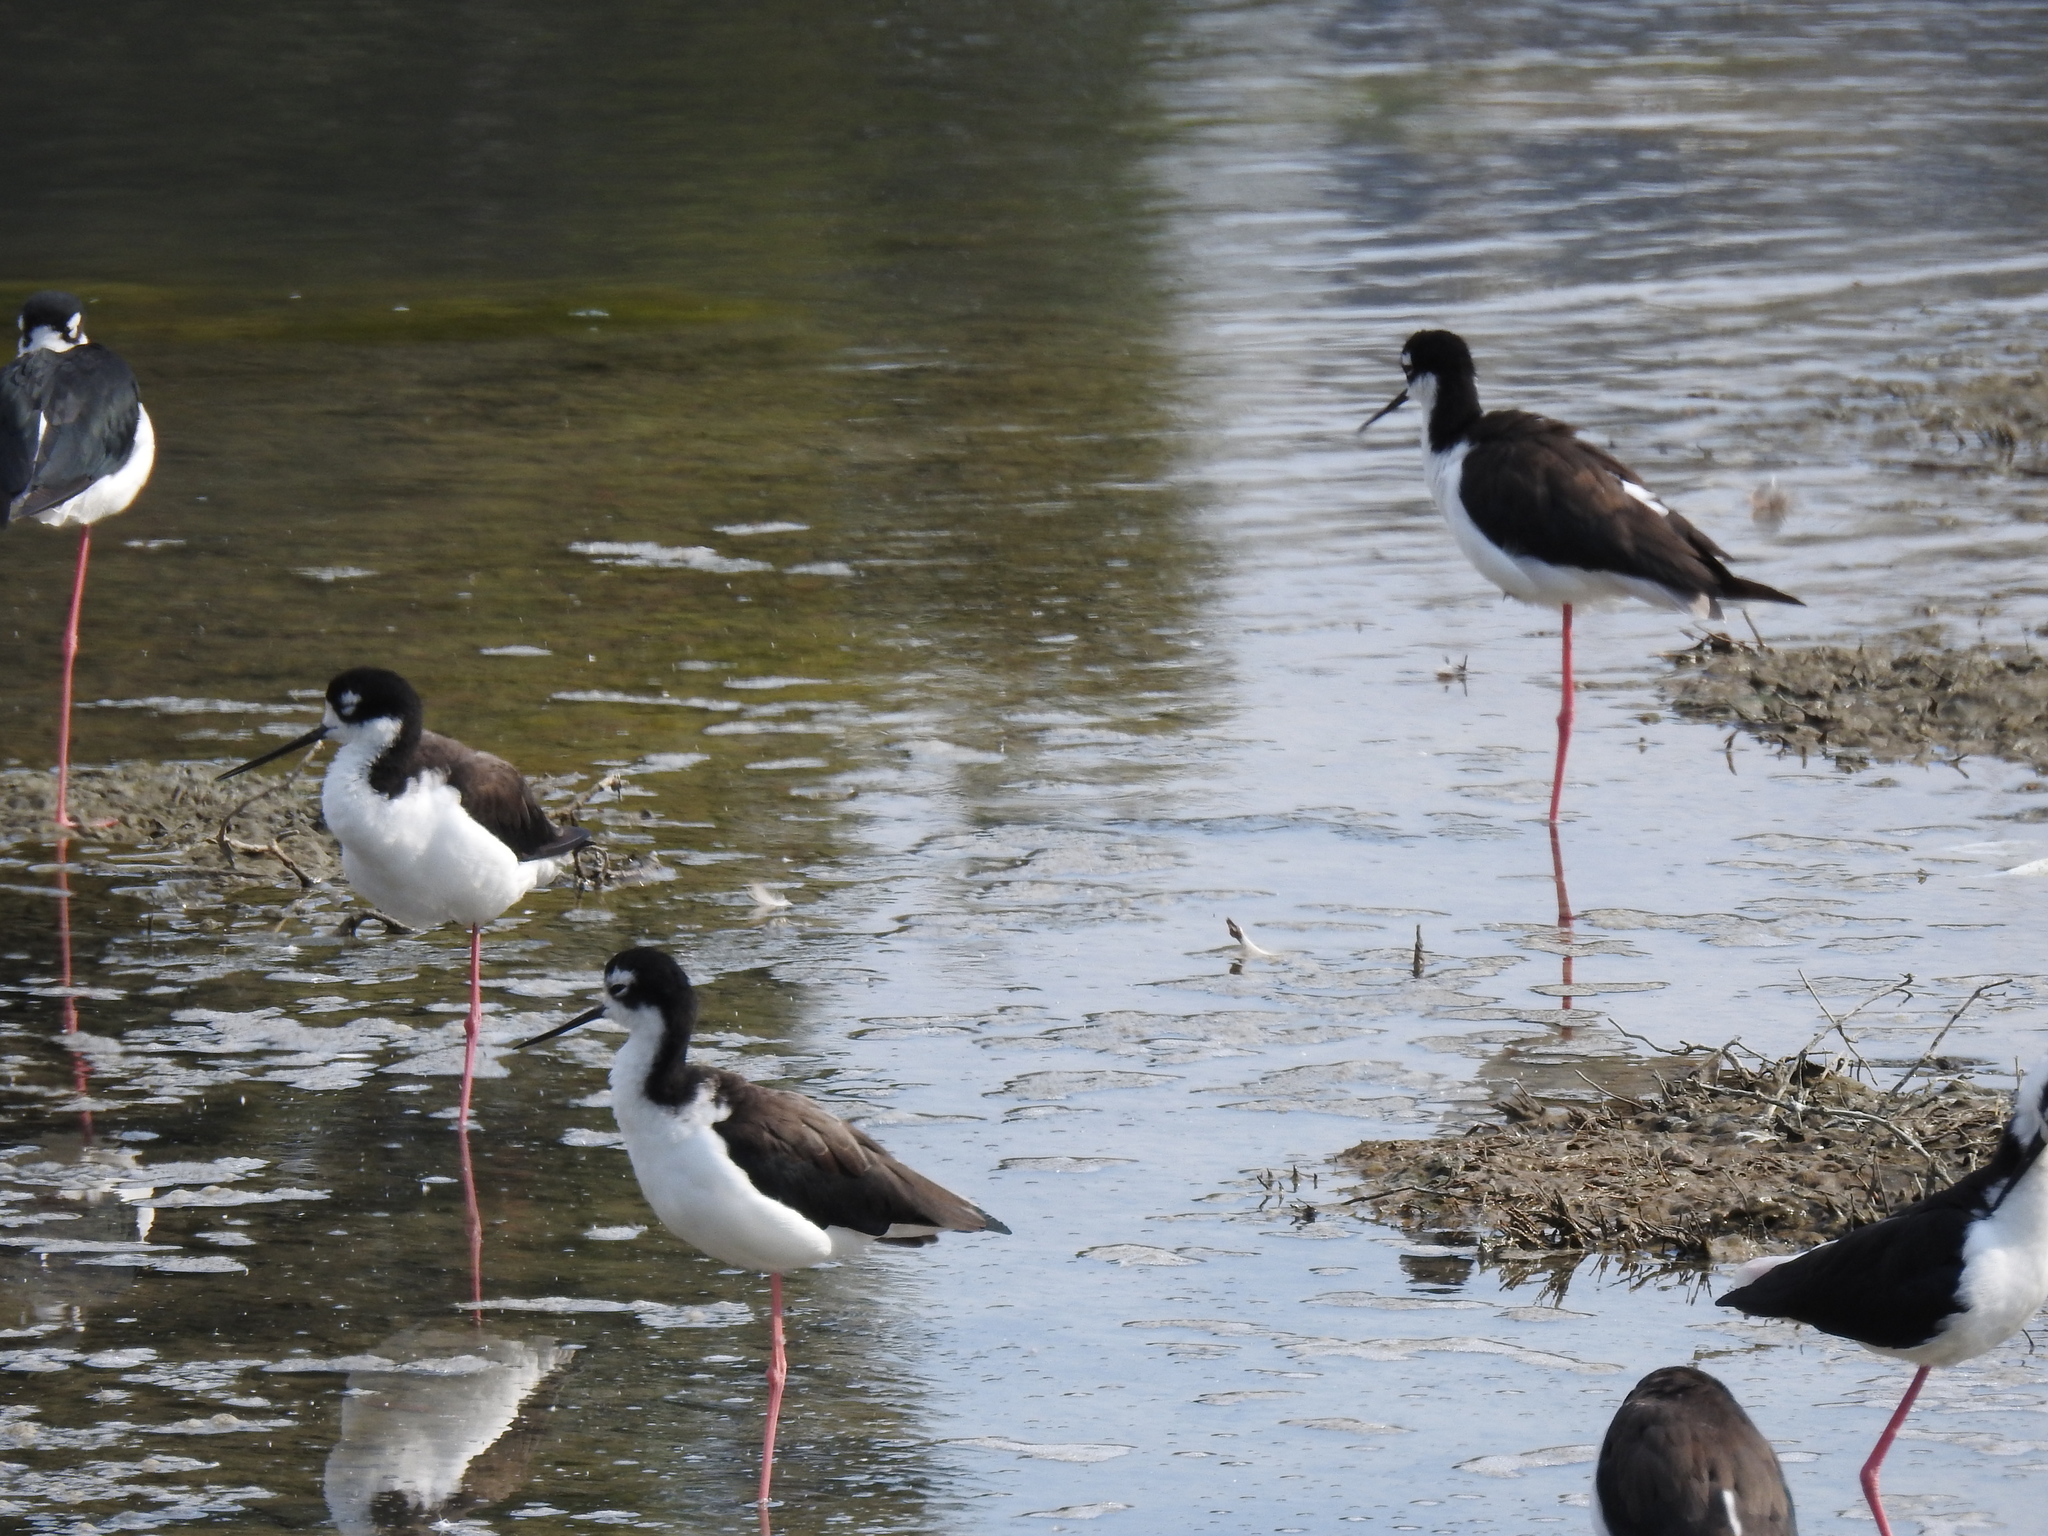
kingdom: Animalia
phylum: Chordata
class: Aves
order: Charadriiformes
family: Recurvirostridae
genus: Himantopus
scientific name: Himantopus mexicanus
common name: Black-necked stilt
